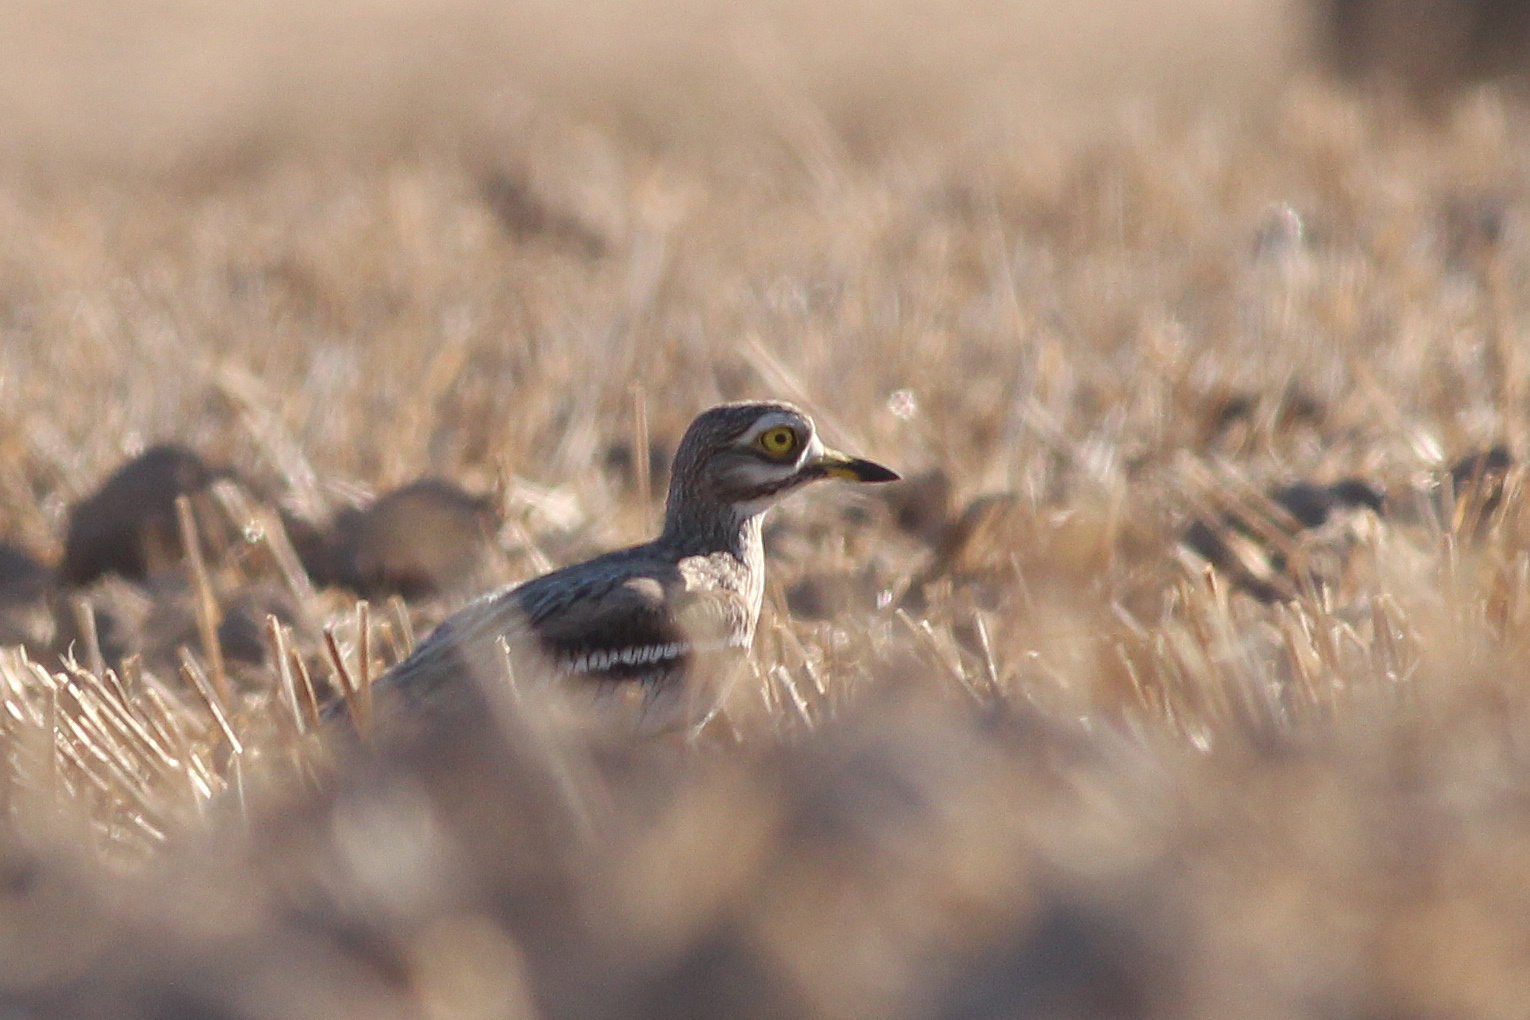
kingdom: Animalia
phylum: Chordata
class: Aves
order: Charadriiformes
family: Burhinidae
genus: Burhinus
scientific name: Burhinus oedicnemus
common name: Eurasian stone-curlew
